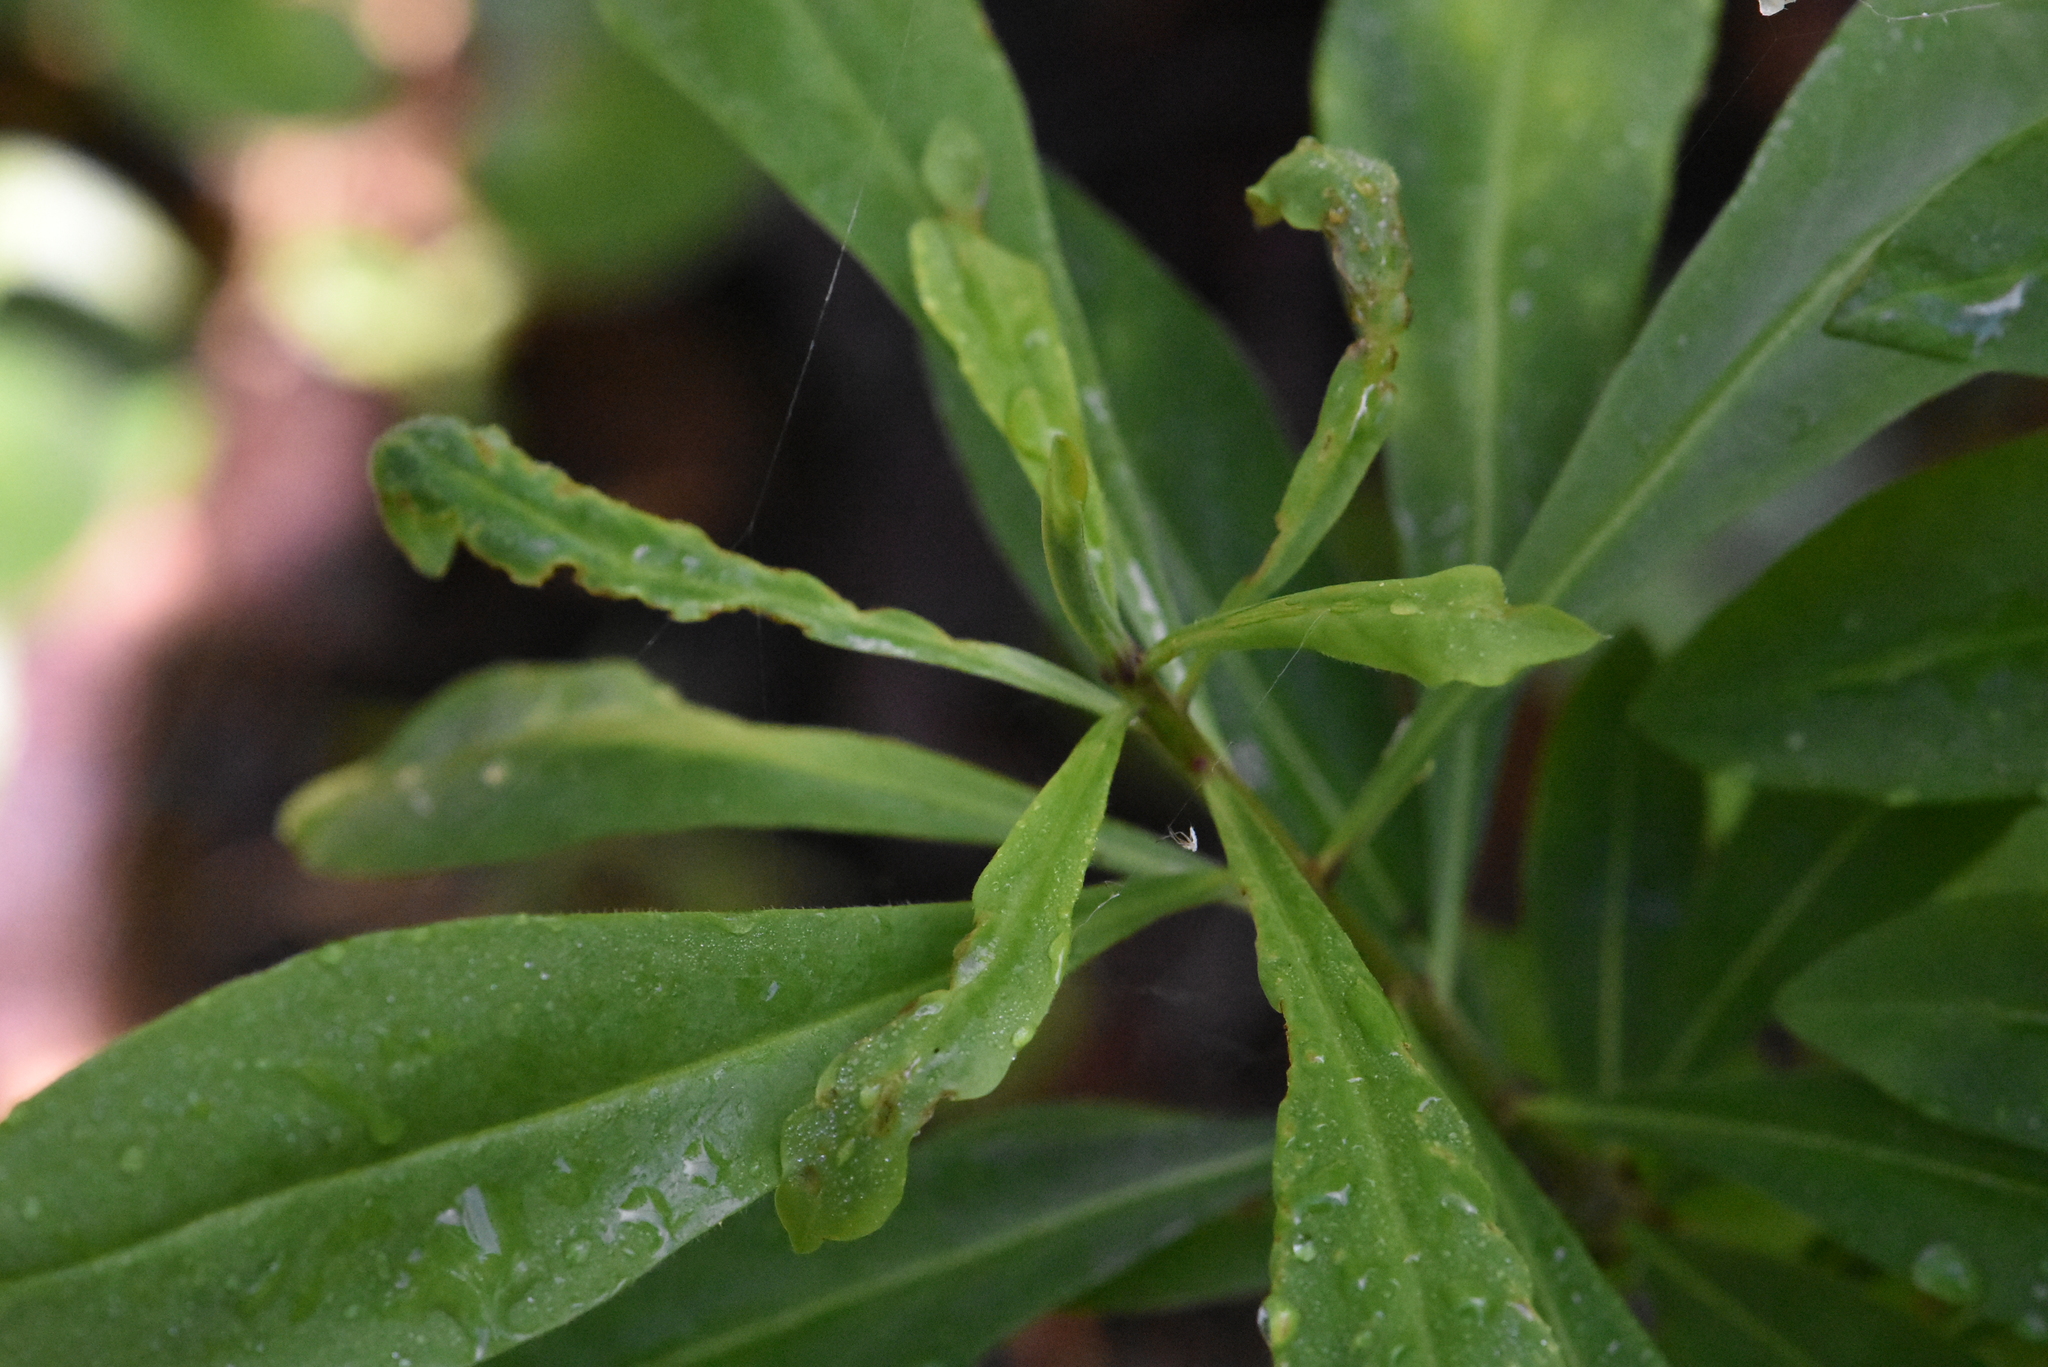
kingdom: Plantae
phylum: Tracheophyta
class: Magnoliopsida
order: Malvales
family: Thymelaeaceae
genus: Daphne
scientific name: Daphne mezereum
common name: Mezereon
